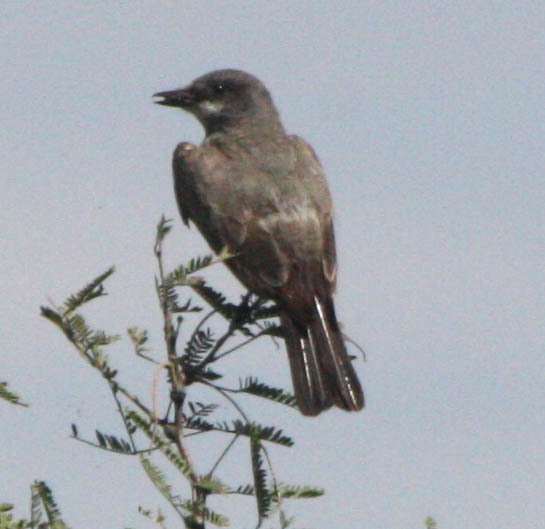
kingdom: Animalia
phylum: Chordata
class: Aves
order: Passeriformes
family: Tyrannidae
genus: Tyrannus
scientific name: Tyrannus vociferans
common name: Cassin's kingbird
